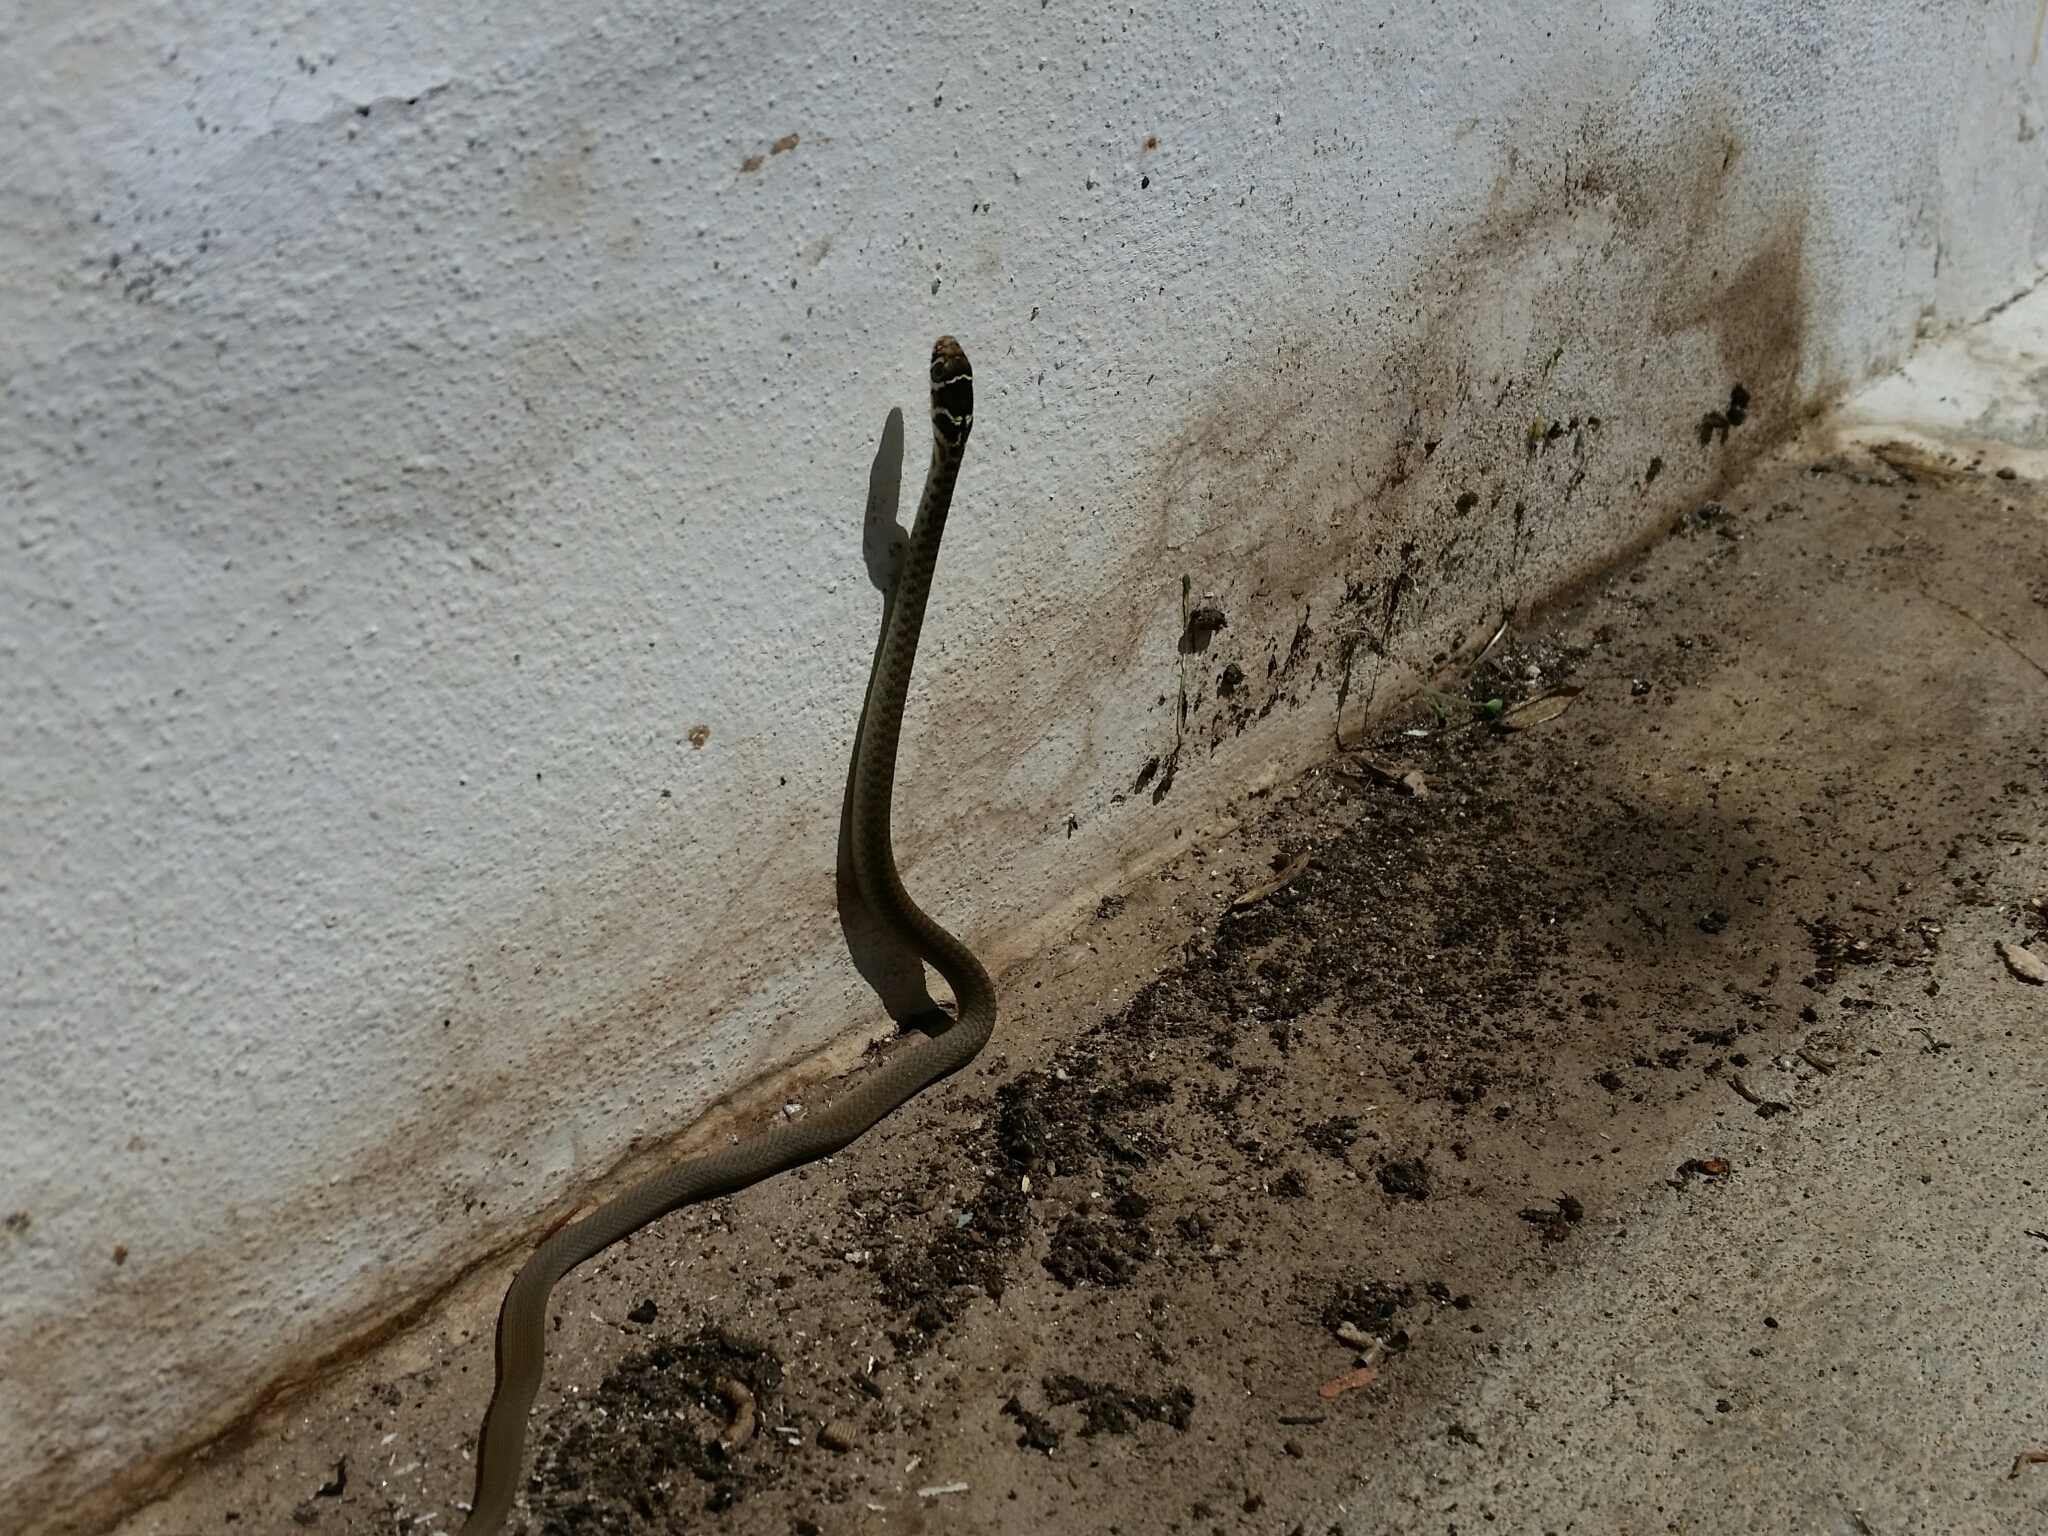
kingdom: Animalia
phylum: Chordata
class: Squamata
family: Colubridae
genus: Hierophis
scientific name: Hierophis viridiflavus
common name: Green whip snake
